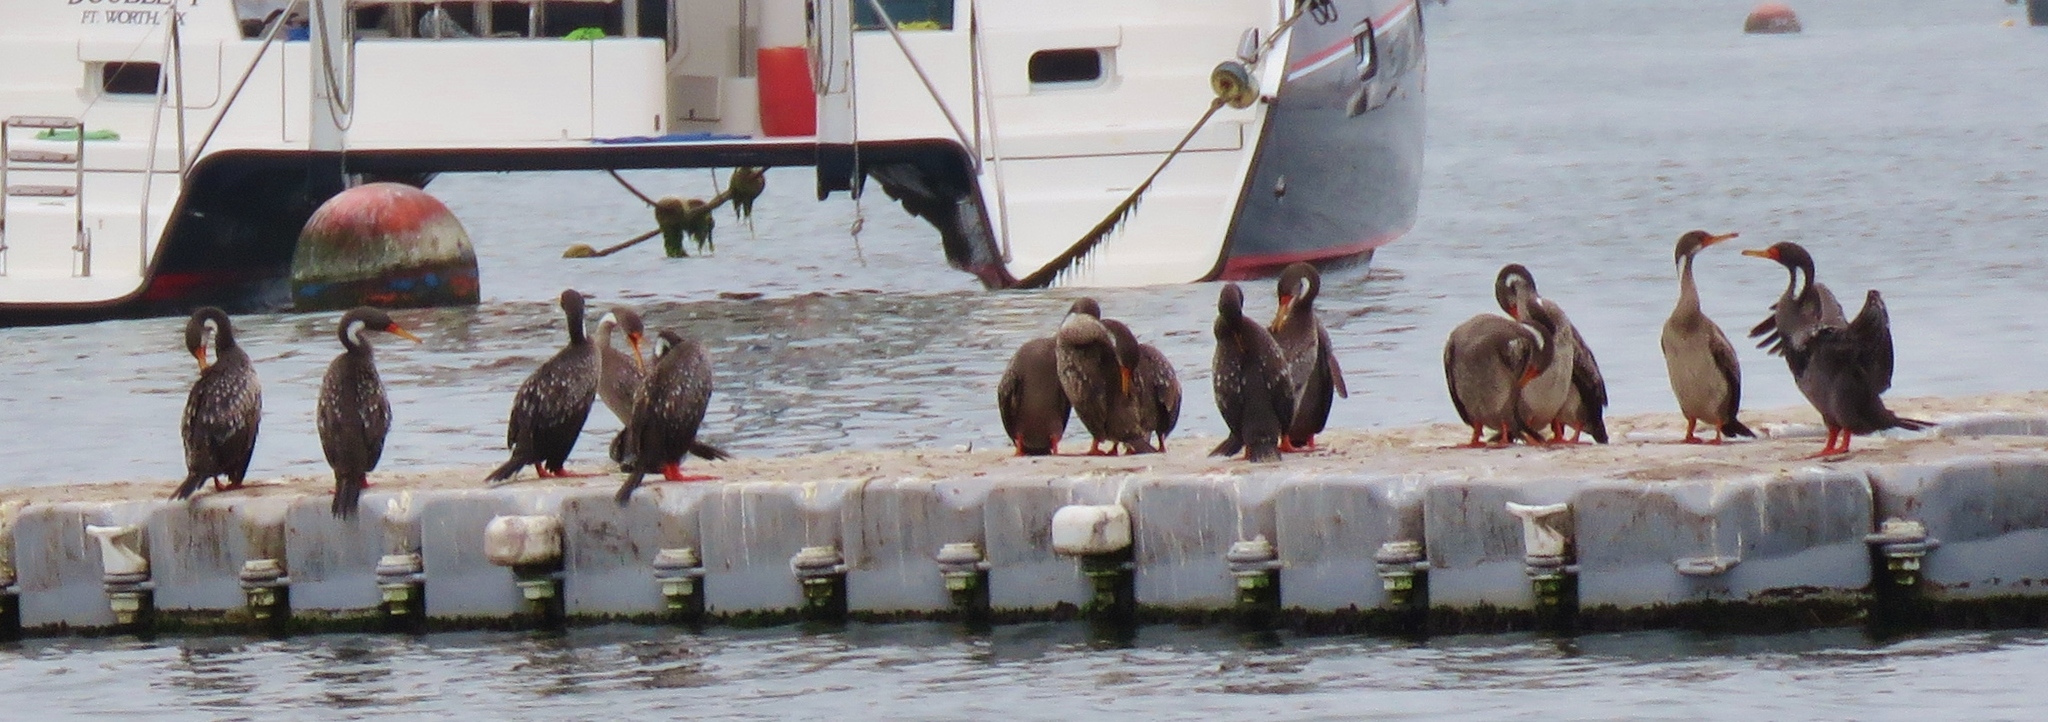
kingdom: Animalia
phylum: Chordata
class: Aves
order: Suliformes
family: Phalacrocoracidae
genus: Phalacrocorax
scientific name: Phalacrocorax gaimardi
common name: Red-legged cormorant
